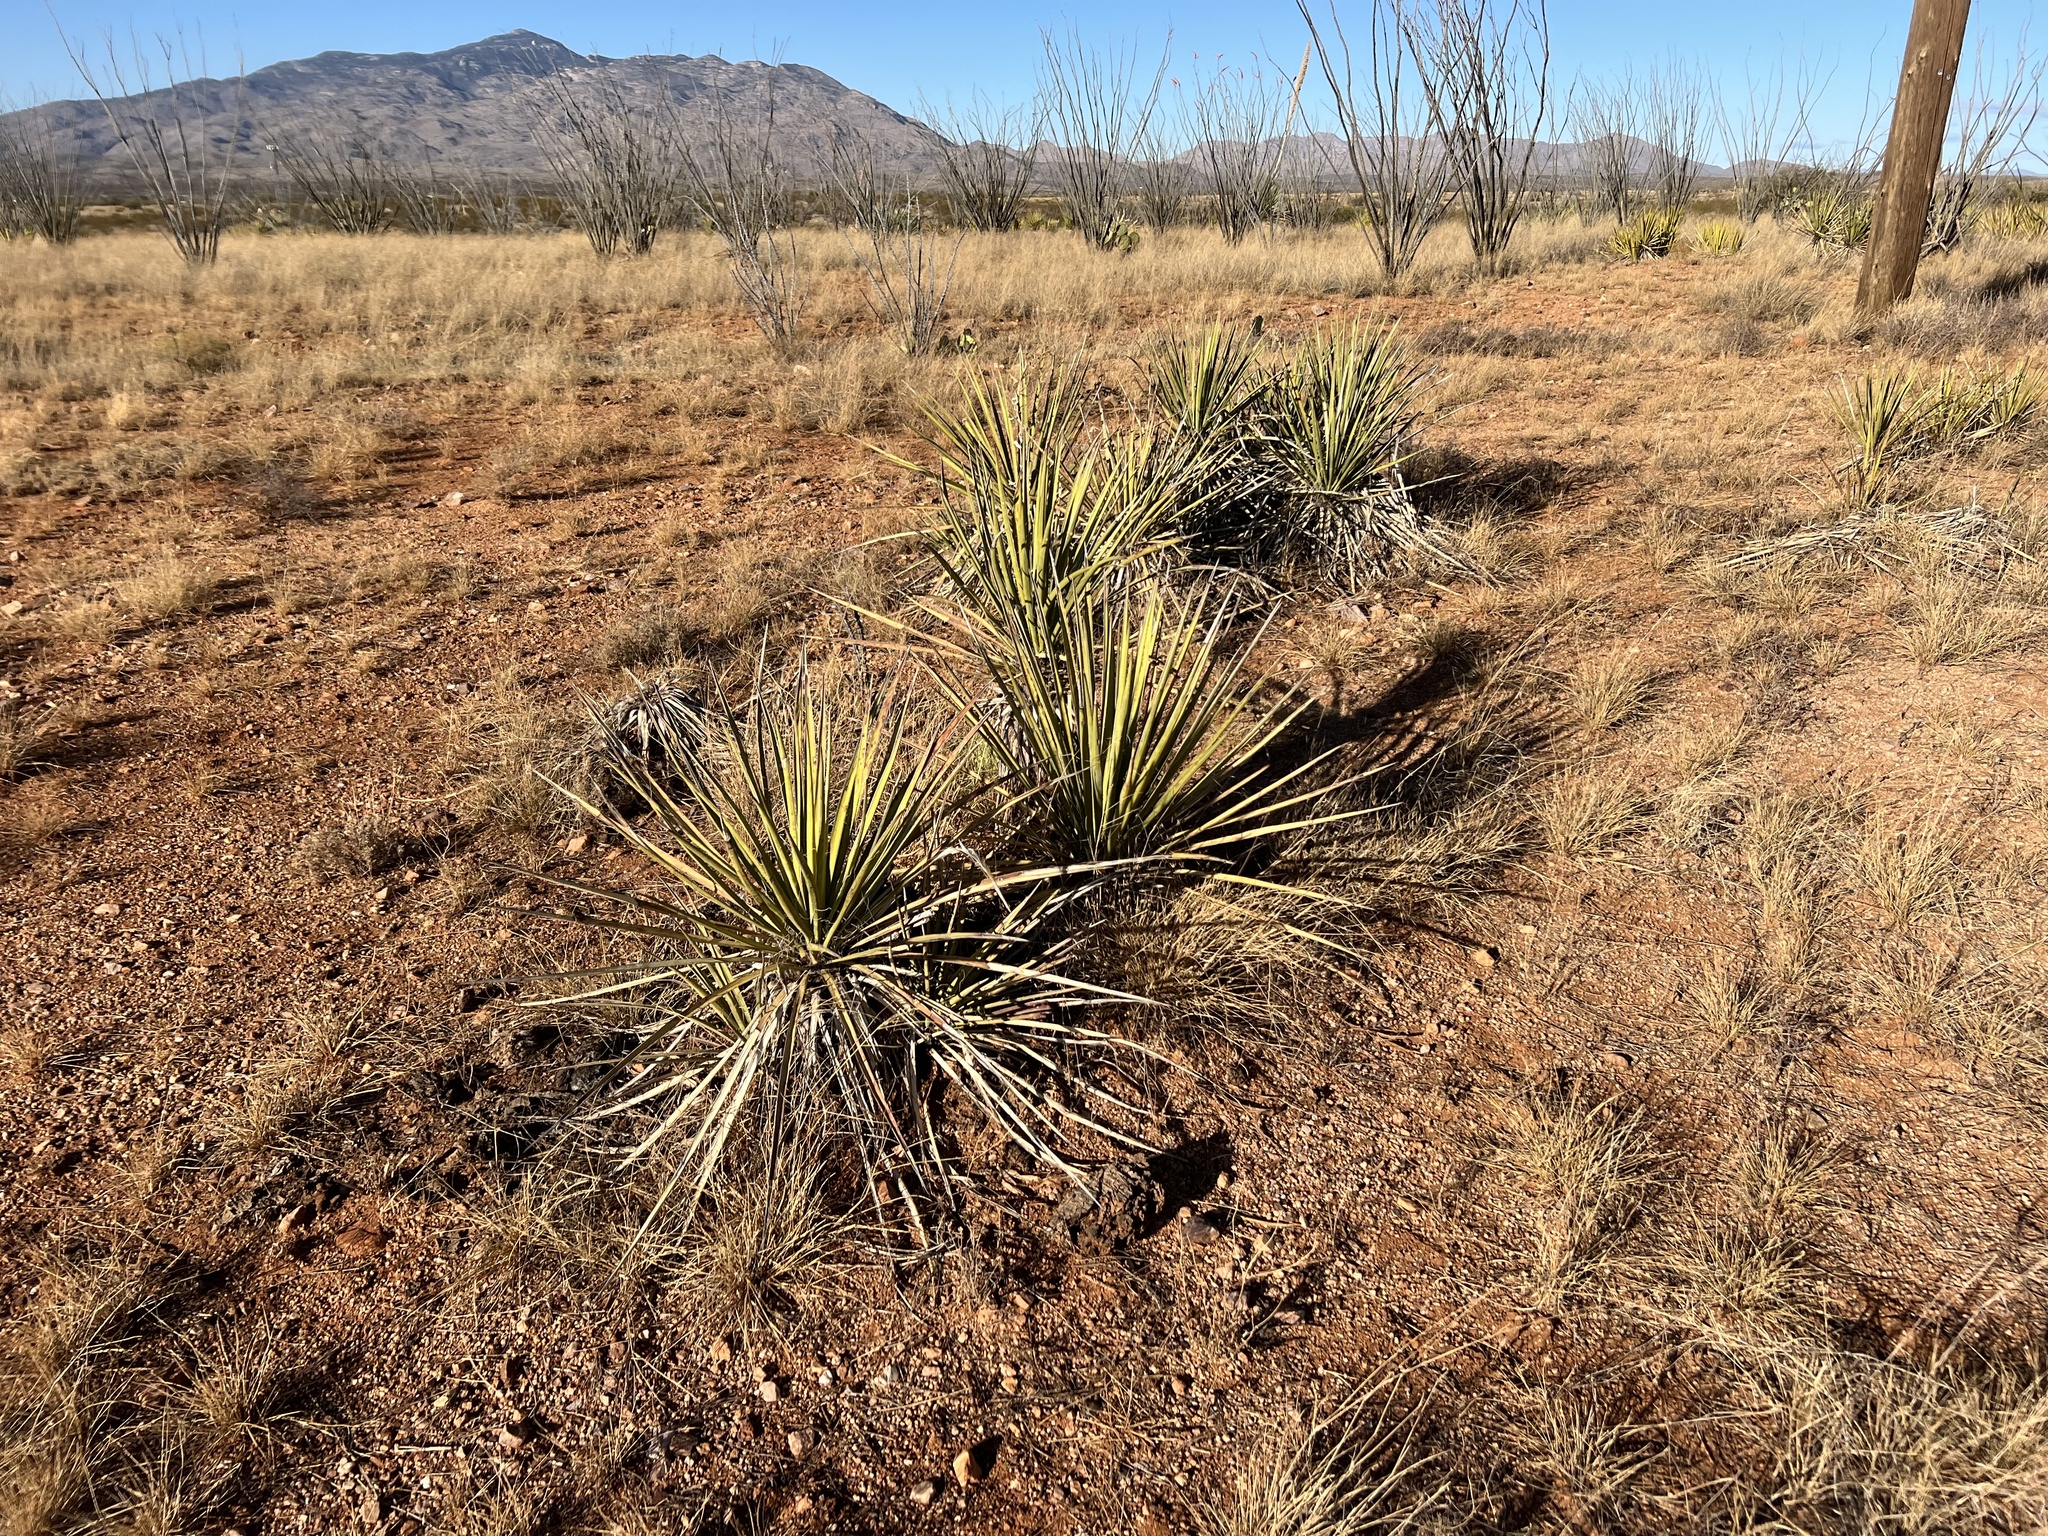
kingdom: Plantae
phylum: Tracheophyta
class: Liliopsida
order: Asparagales
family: Asparagaceae
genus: Yucca
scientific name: Yucca baccata
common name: Banana yucca
